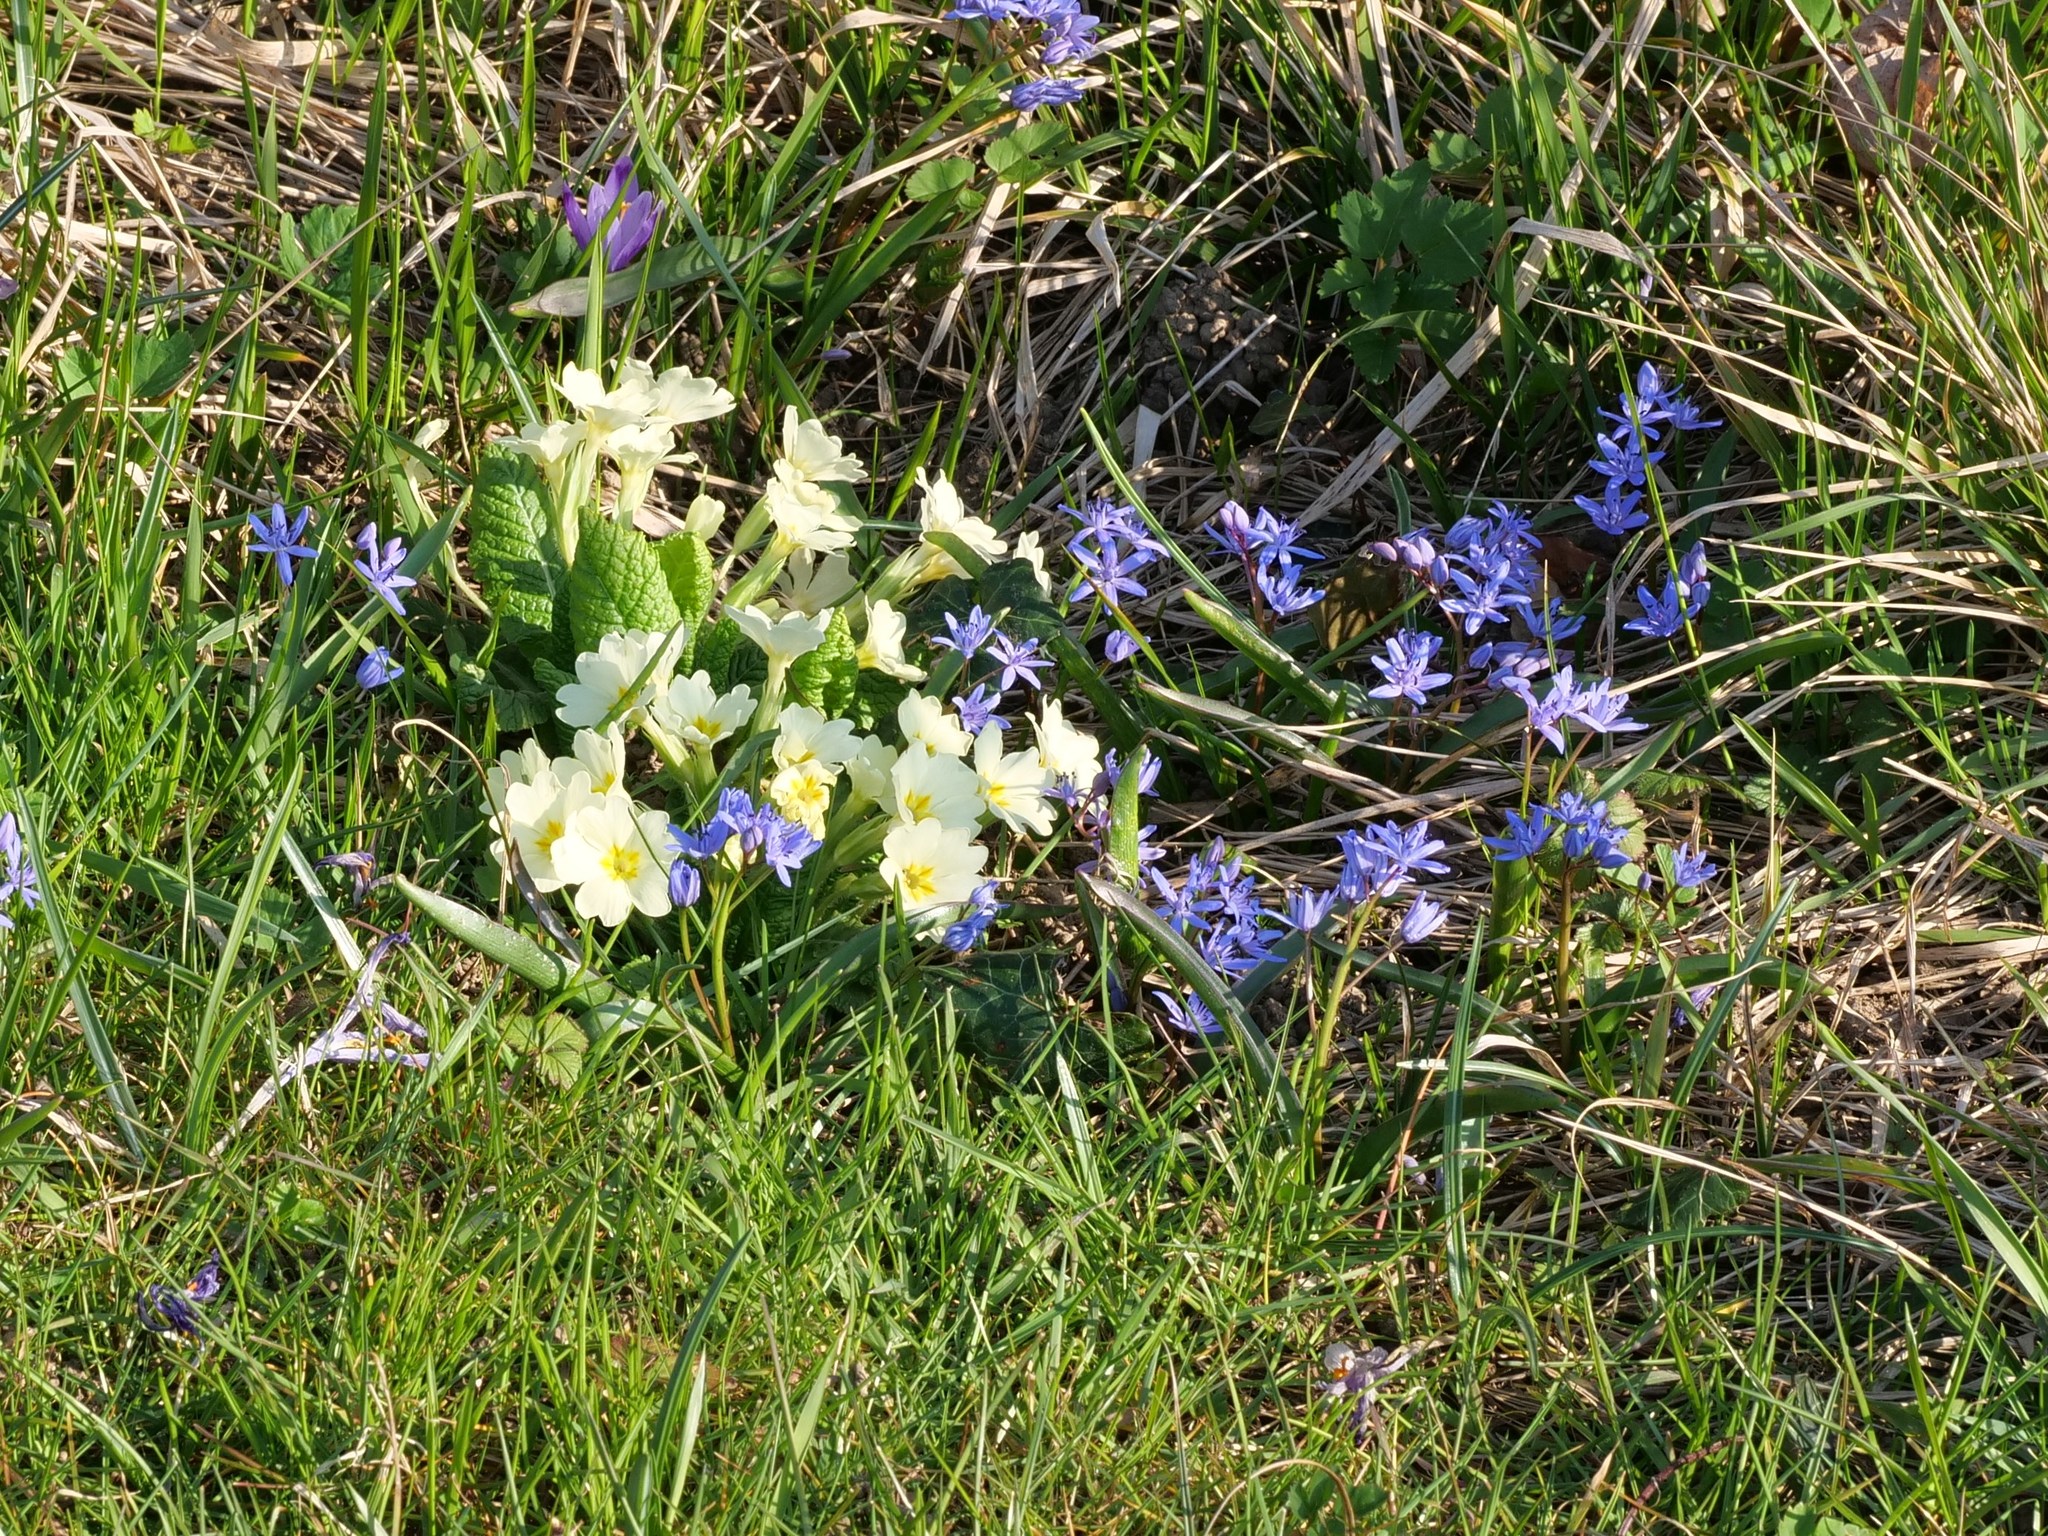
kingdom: Plantae
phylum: Tracheophyta
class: Liliopsida
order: Asparagales
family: Asparagaceae
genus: Scilla
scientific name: Scilla bifolia
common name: Alpine squill
